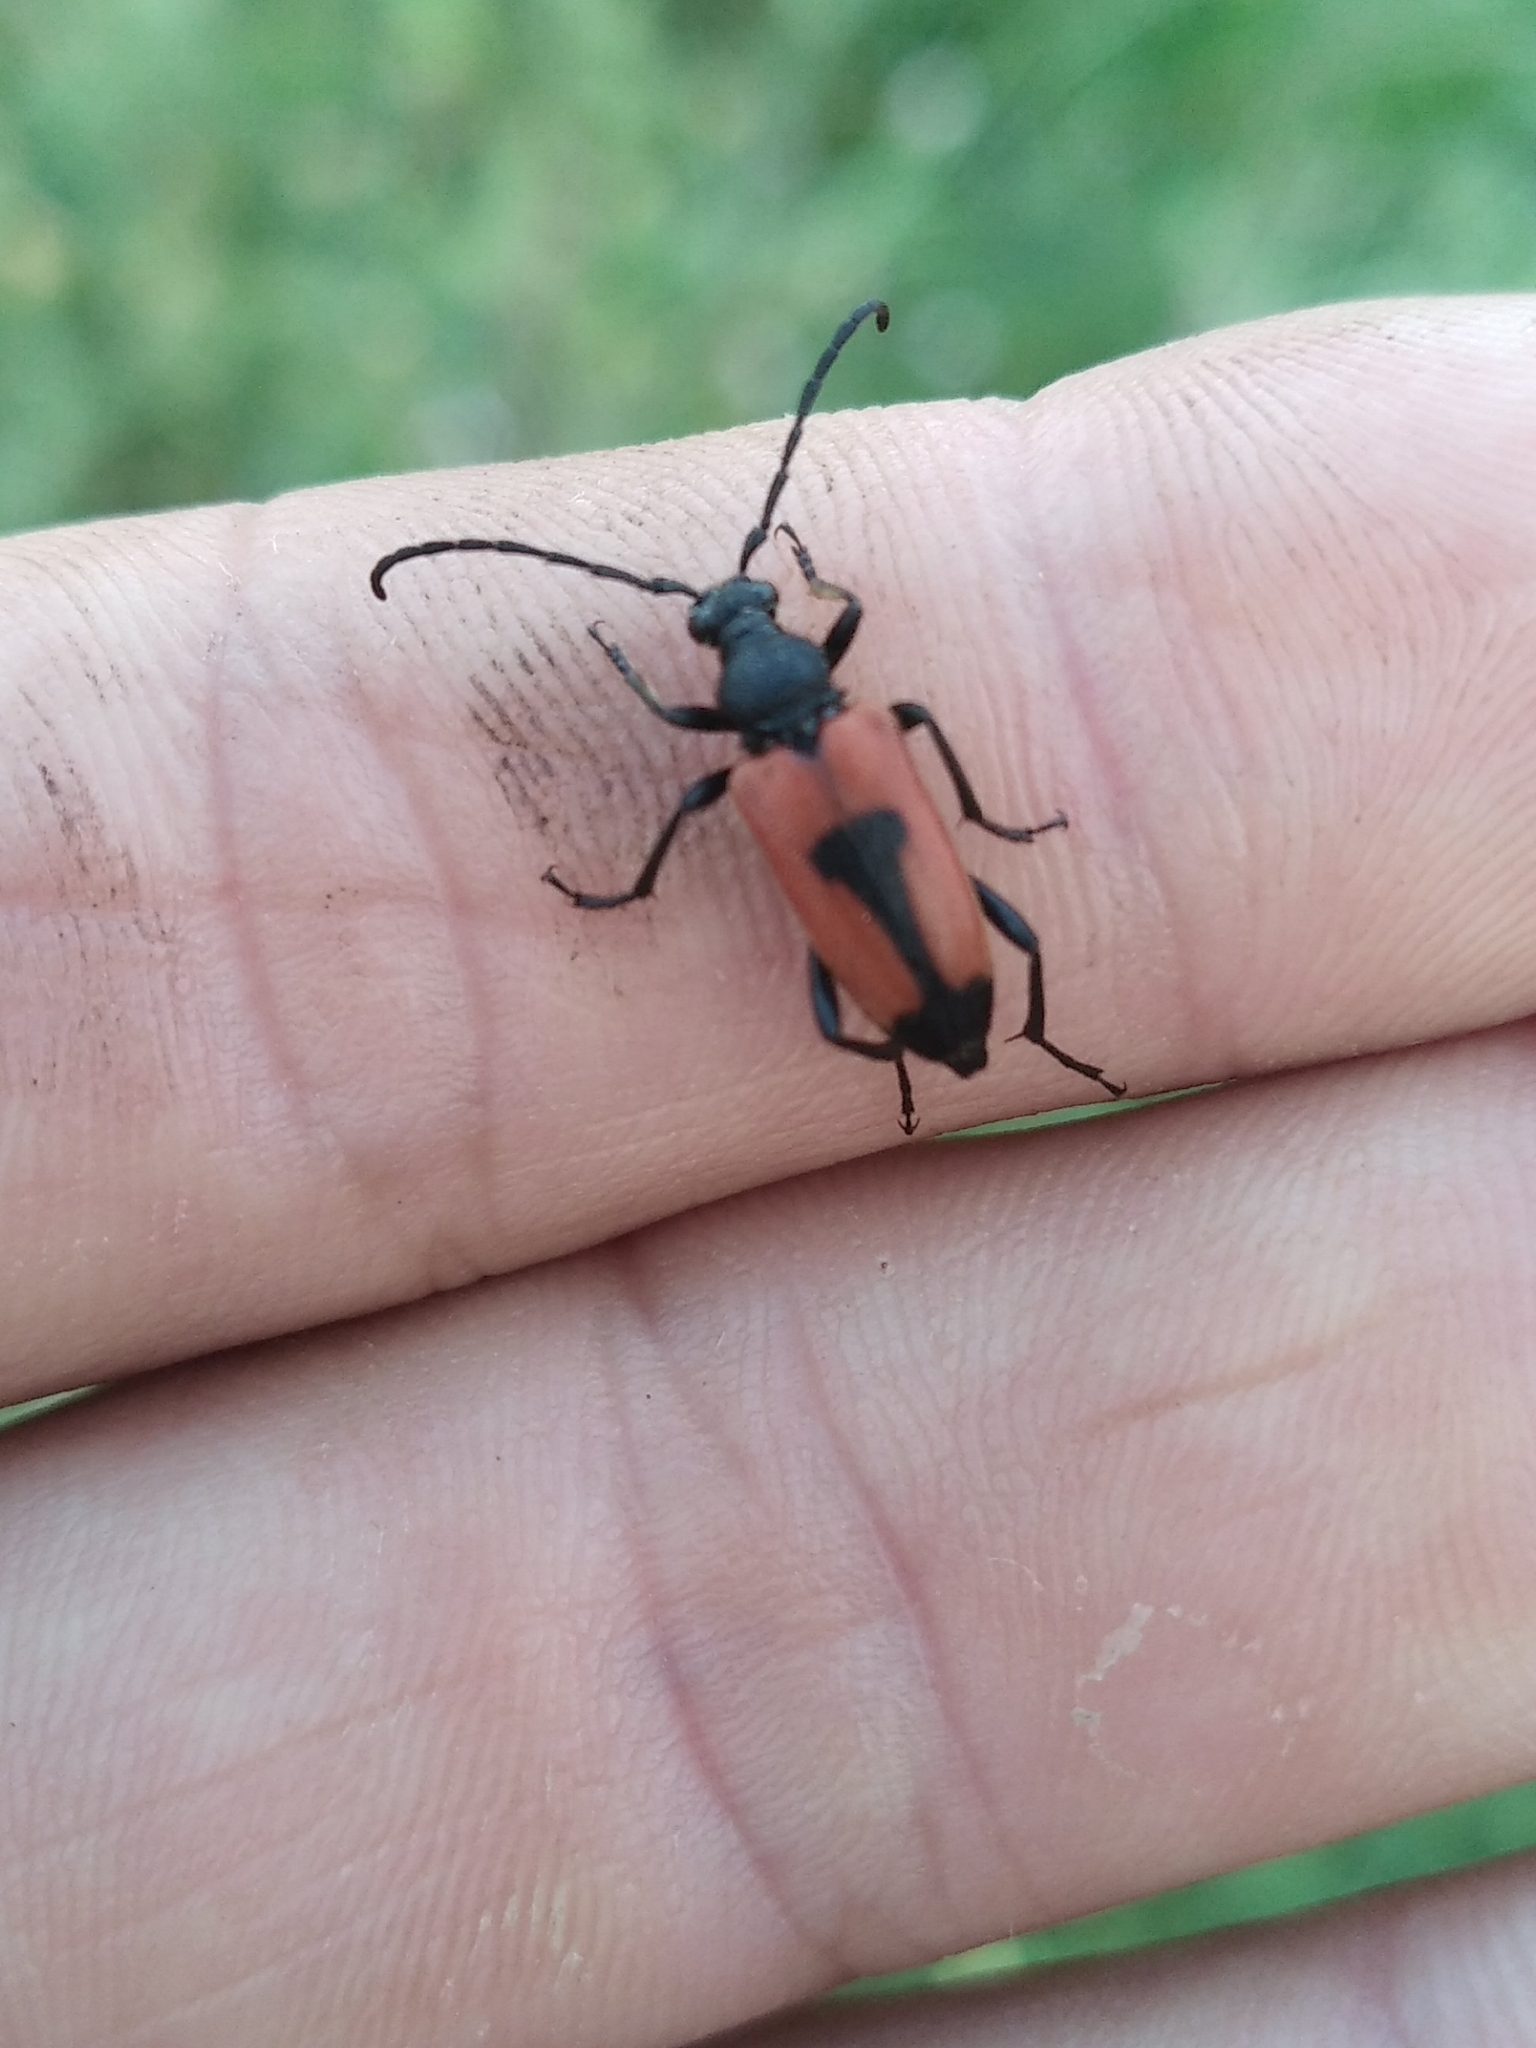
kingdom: Animalia
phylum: Arthropoda
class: Insecta
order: Coleoptera
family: Cerambycidae
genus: Stictoleptura
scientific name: Stictoleptura cordigera
